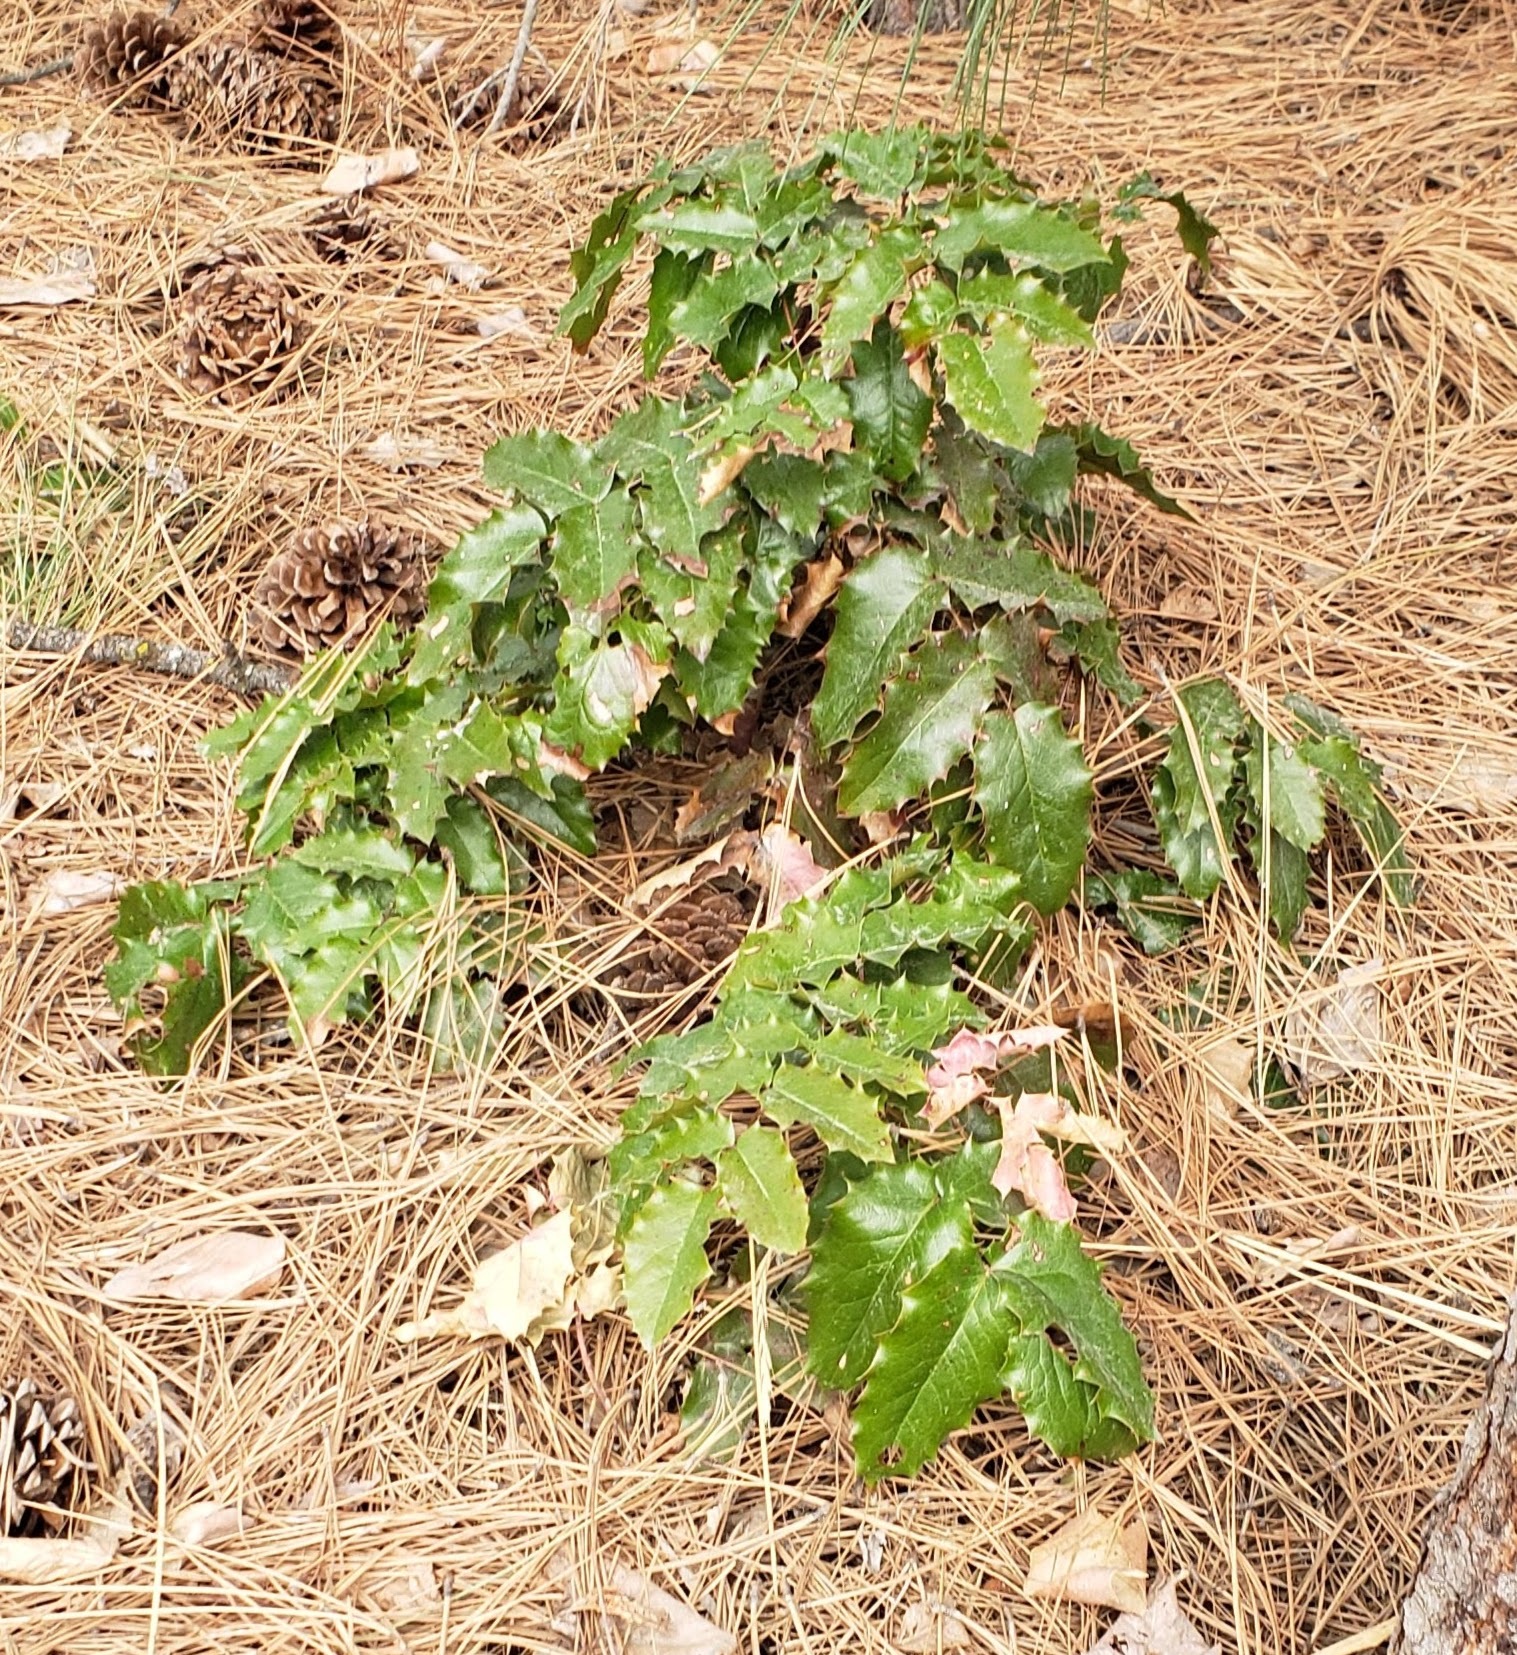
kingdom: Plantae
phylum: Tracheophyta
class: Magnoliopsida
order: Ranunculales
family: Berberidaceae
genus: Mahonia
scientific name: Mahonia aquifolium
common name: Oregon-grape
